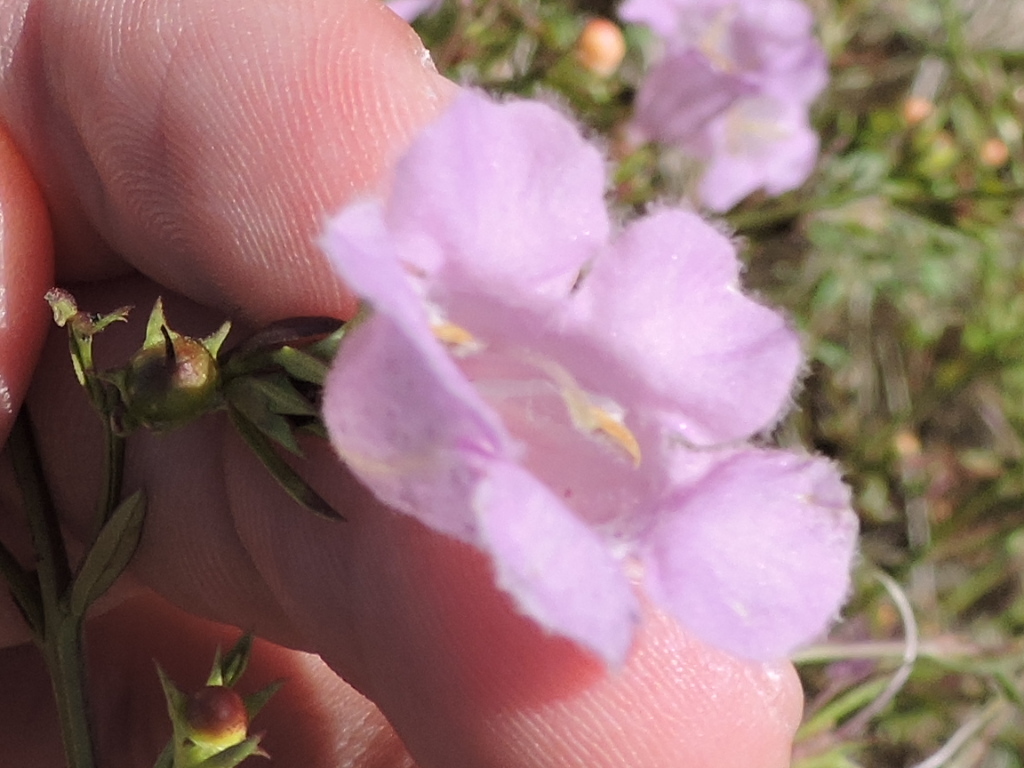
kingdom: Plantae
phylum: Tracheophyta
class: Magnoliopsida
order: Lamiales
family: Orobanchaceae
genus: Agalinis
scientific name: Agalinis heterophylla
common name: Prairie agalinis
